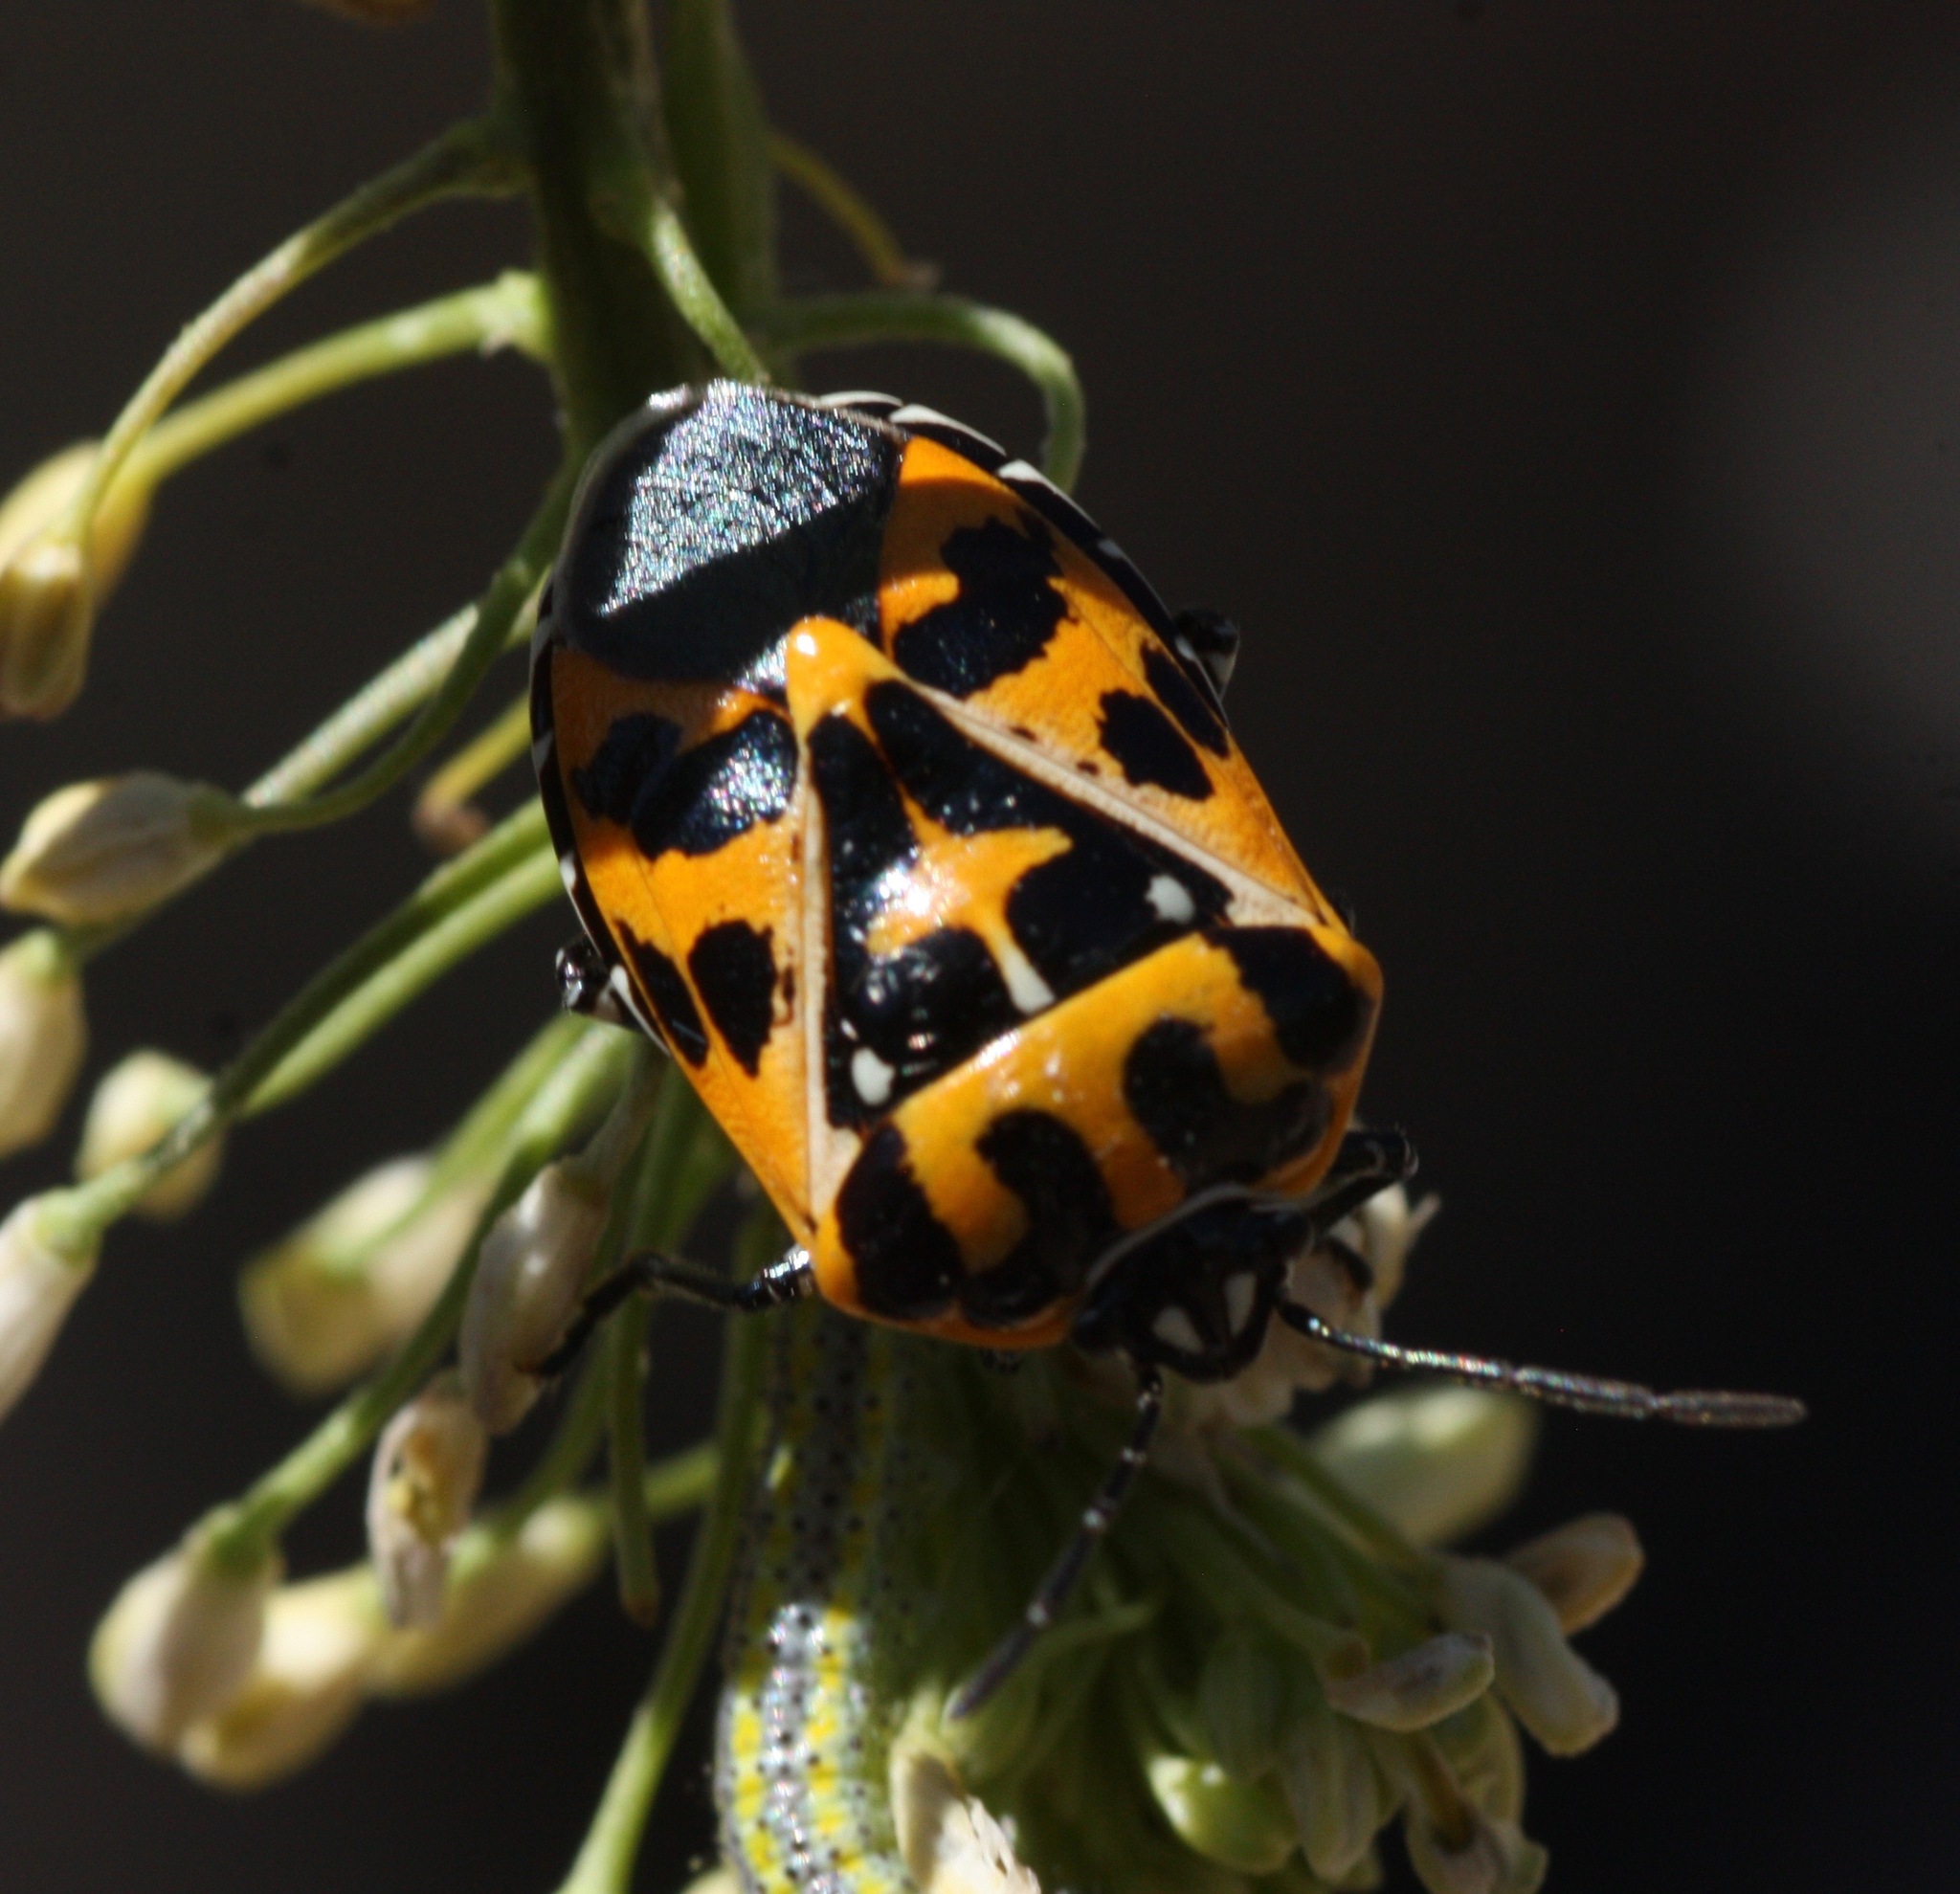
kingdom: Animalia
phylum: Arthropoda
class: Insecta
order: Hemiptera
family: Pentatomidae
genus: Murgantia
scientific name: Murgantia histrionica
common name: Harlequin bug
